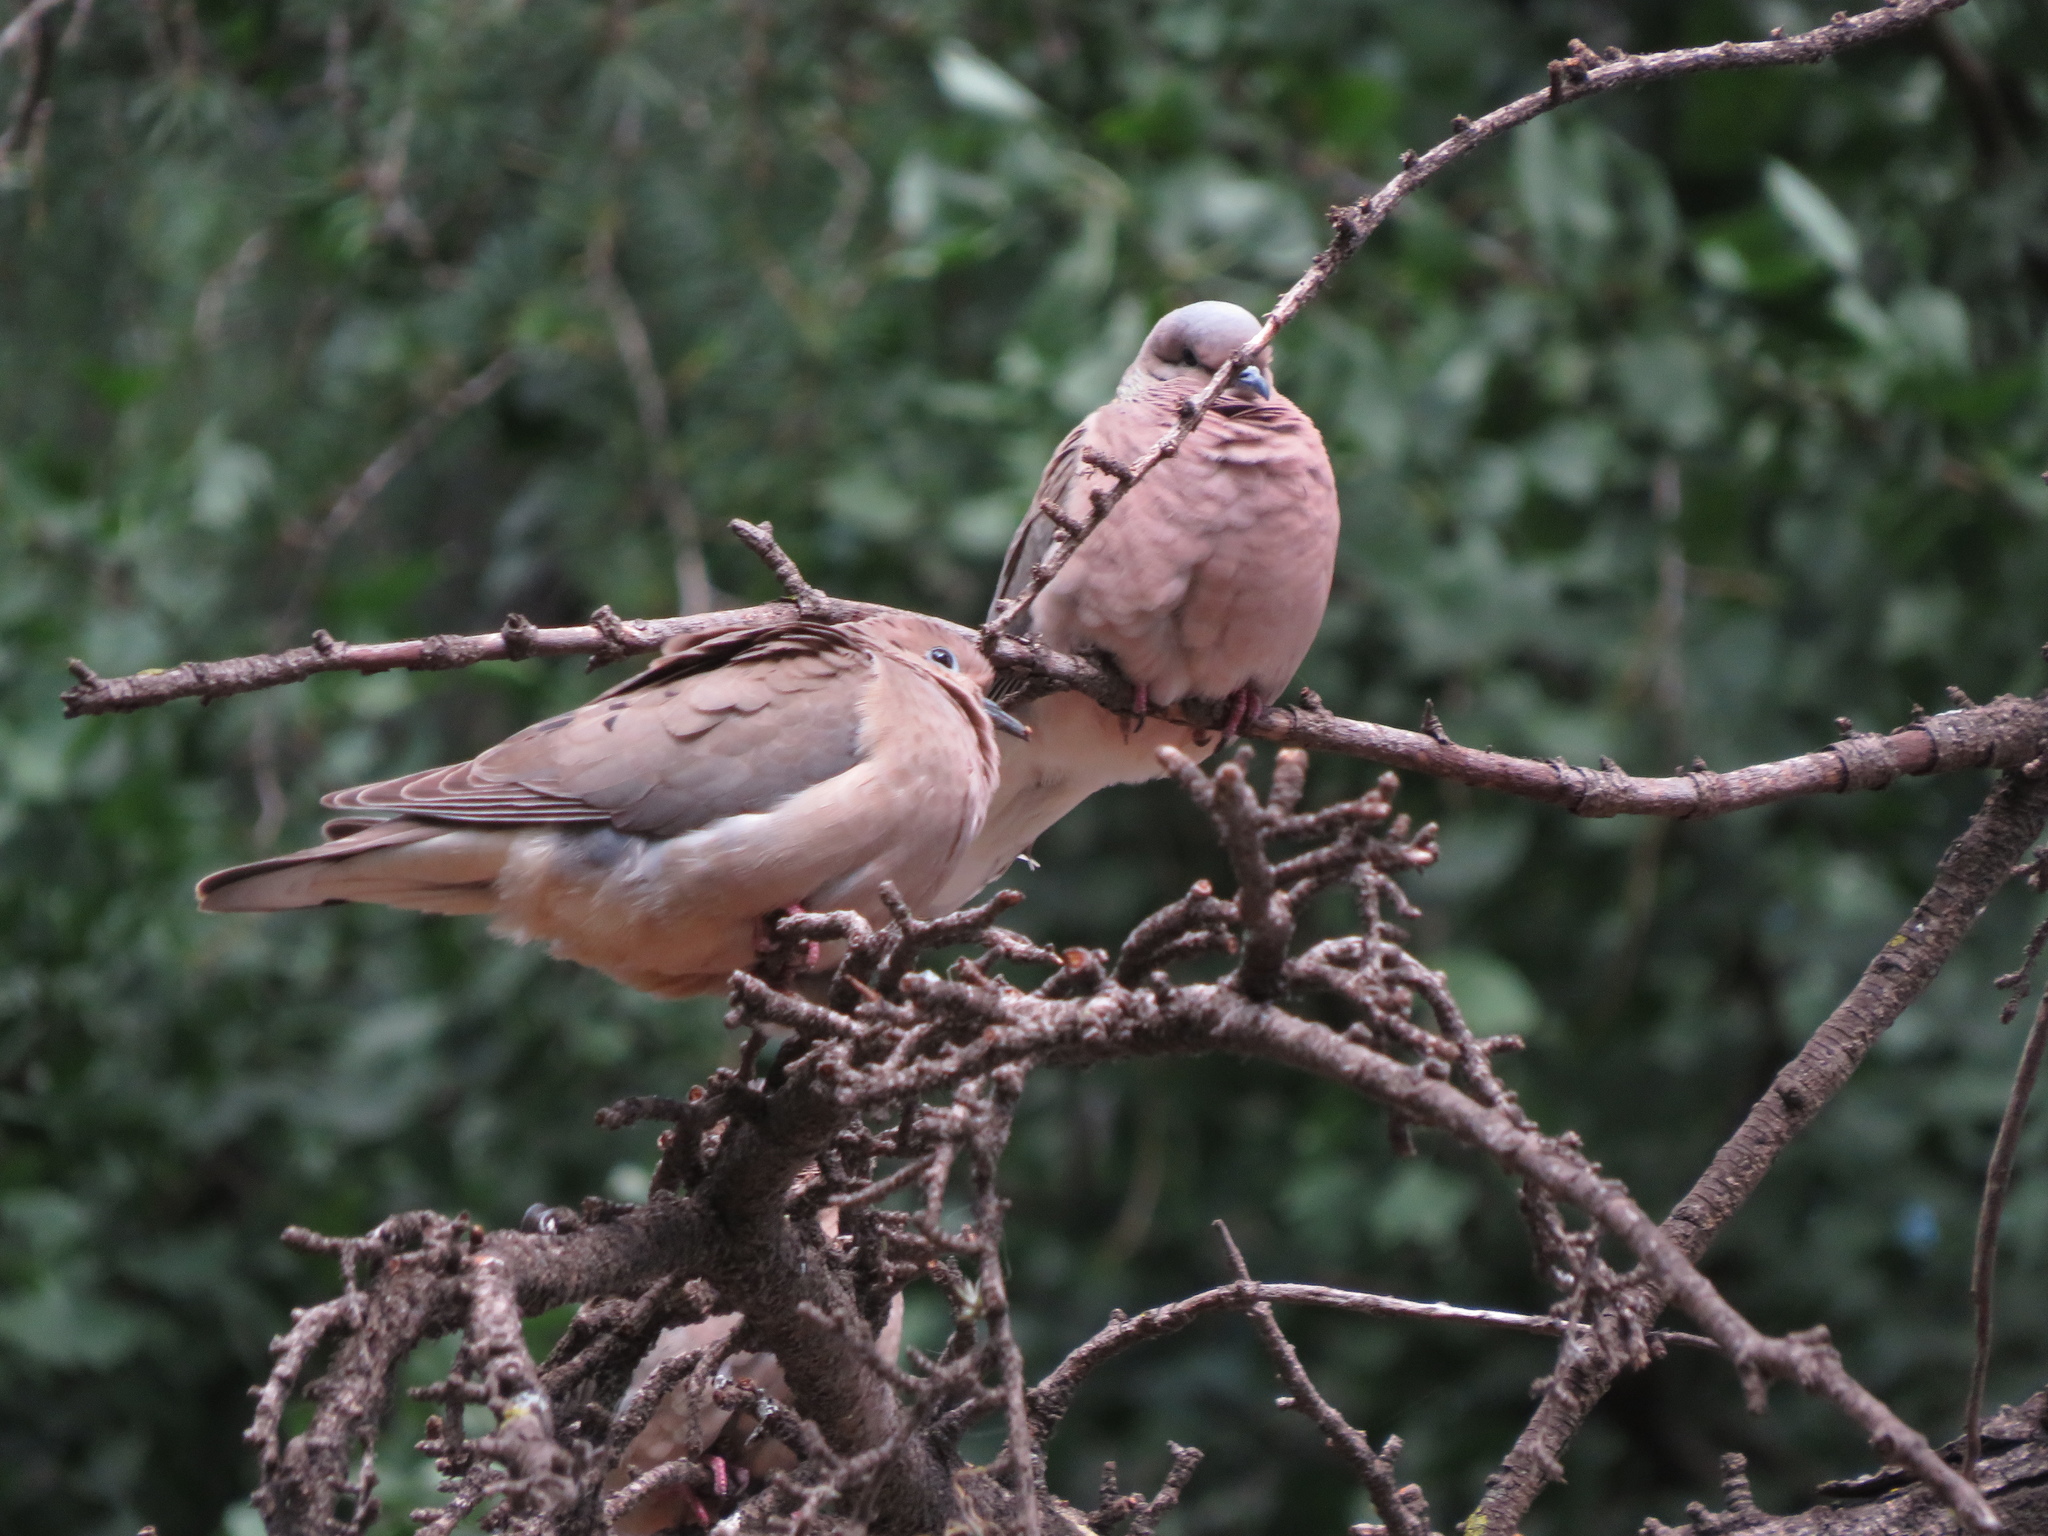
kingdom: Animalia
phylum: Chordata
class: Aves
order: Columbiformes
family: Columbidae
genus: Zenaida
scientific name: Zenaida auriculata
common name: Eared dove
